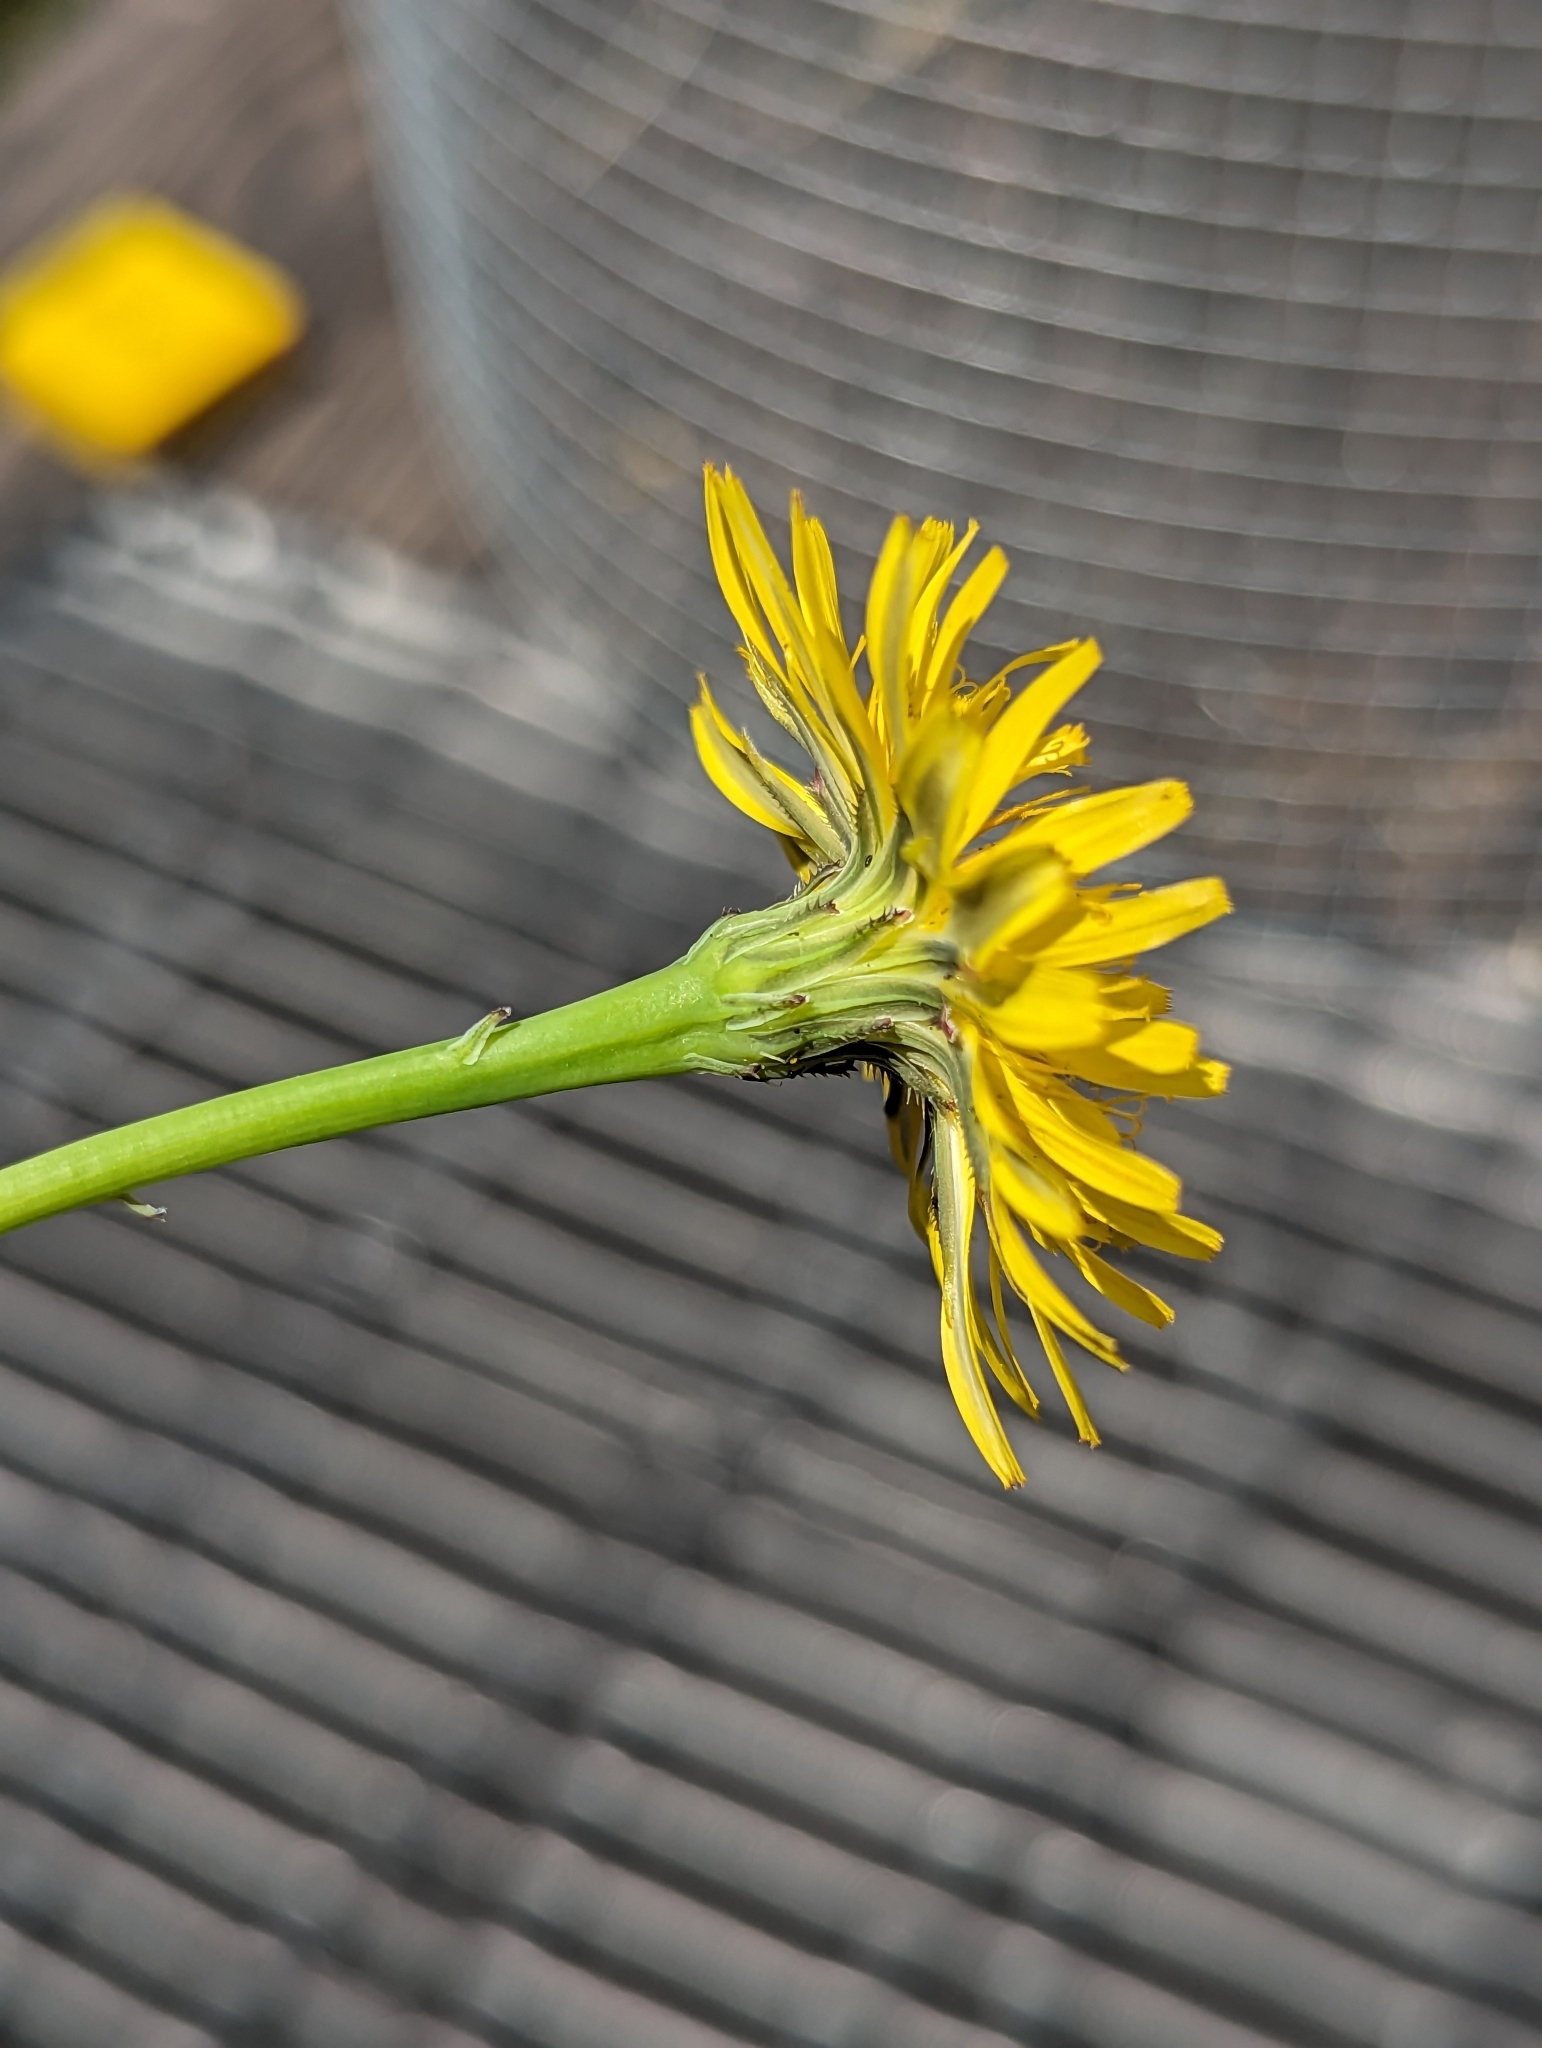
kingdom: Plantae
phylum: Tracheophyta
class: Magnoliopsida
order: Asterales
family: Asteraceae
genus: Hypochaeris
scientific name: Hypochaeris radicata
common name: Flatweed
